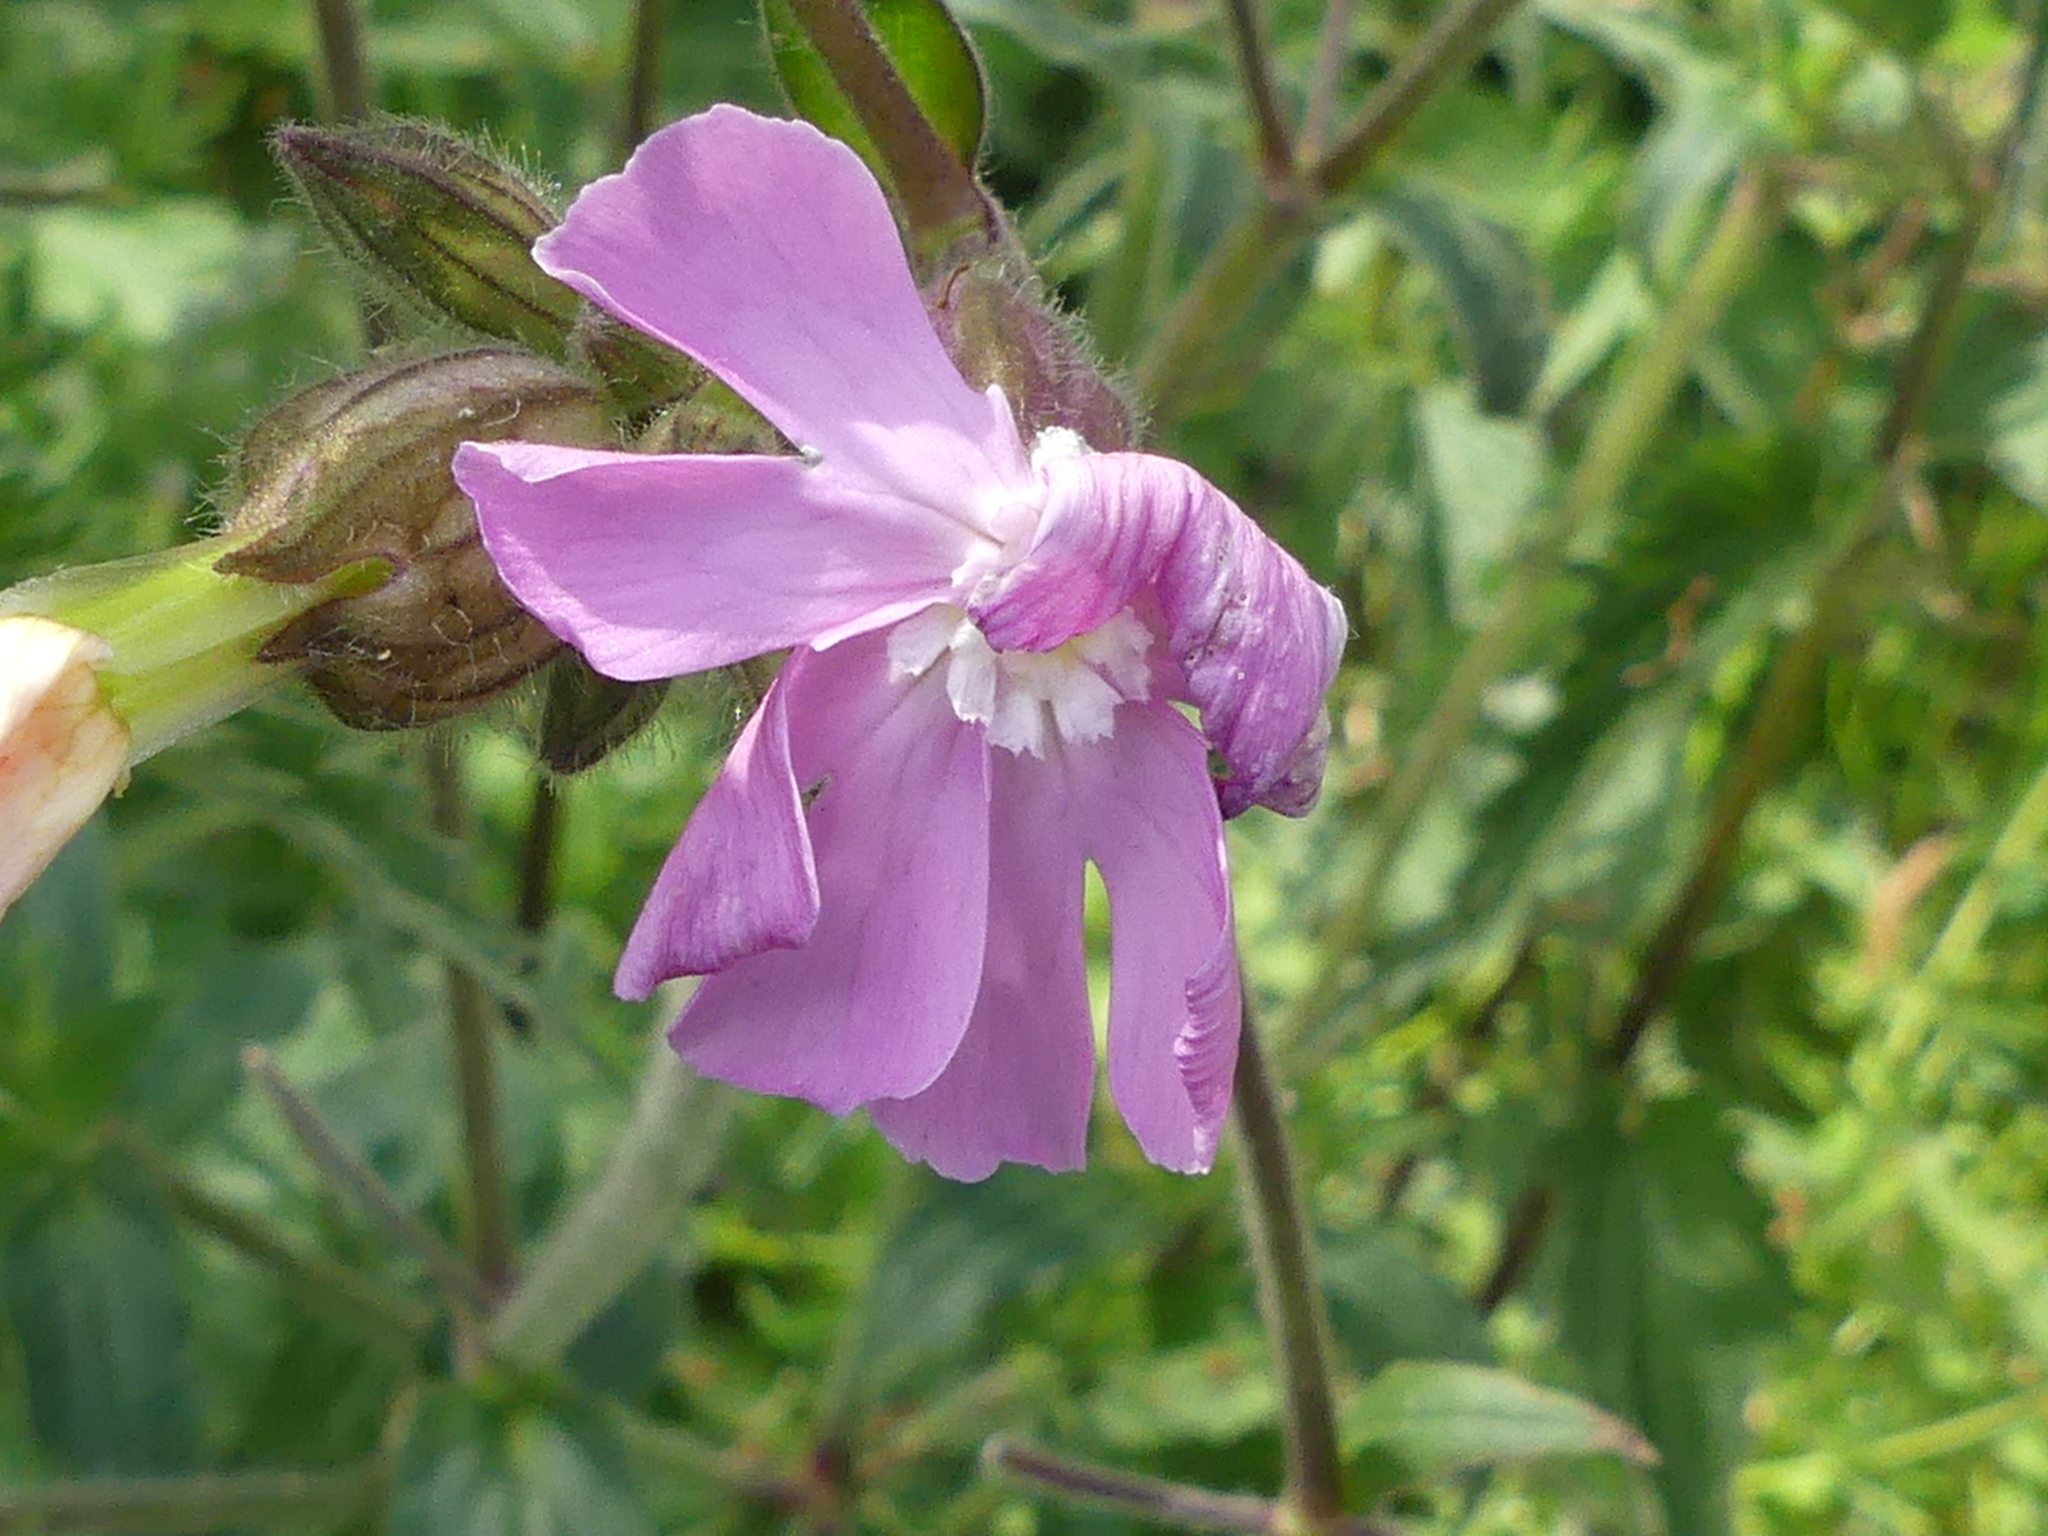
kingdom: Plantae
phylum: Tracheophyta
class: Magnoliopsida
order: Caryophyllales
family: Caryophyllaceae
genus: Silene
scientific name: Silene dioica
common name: Red campion
